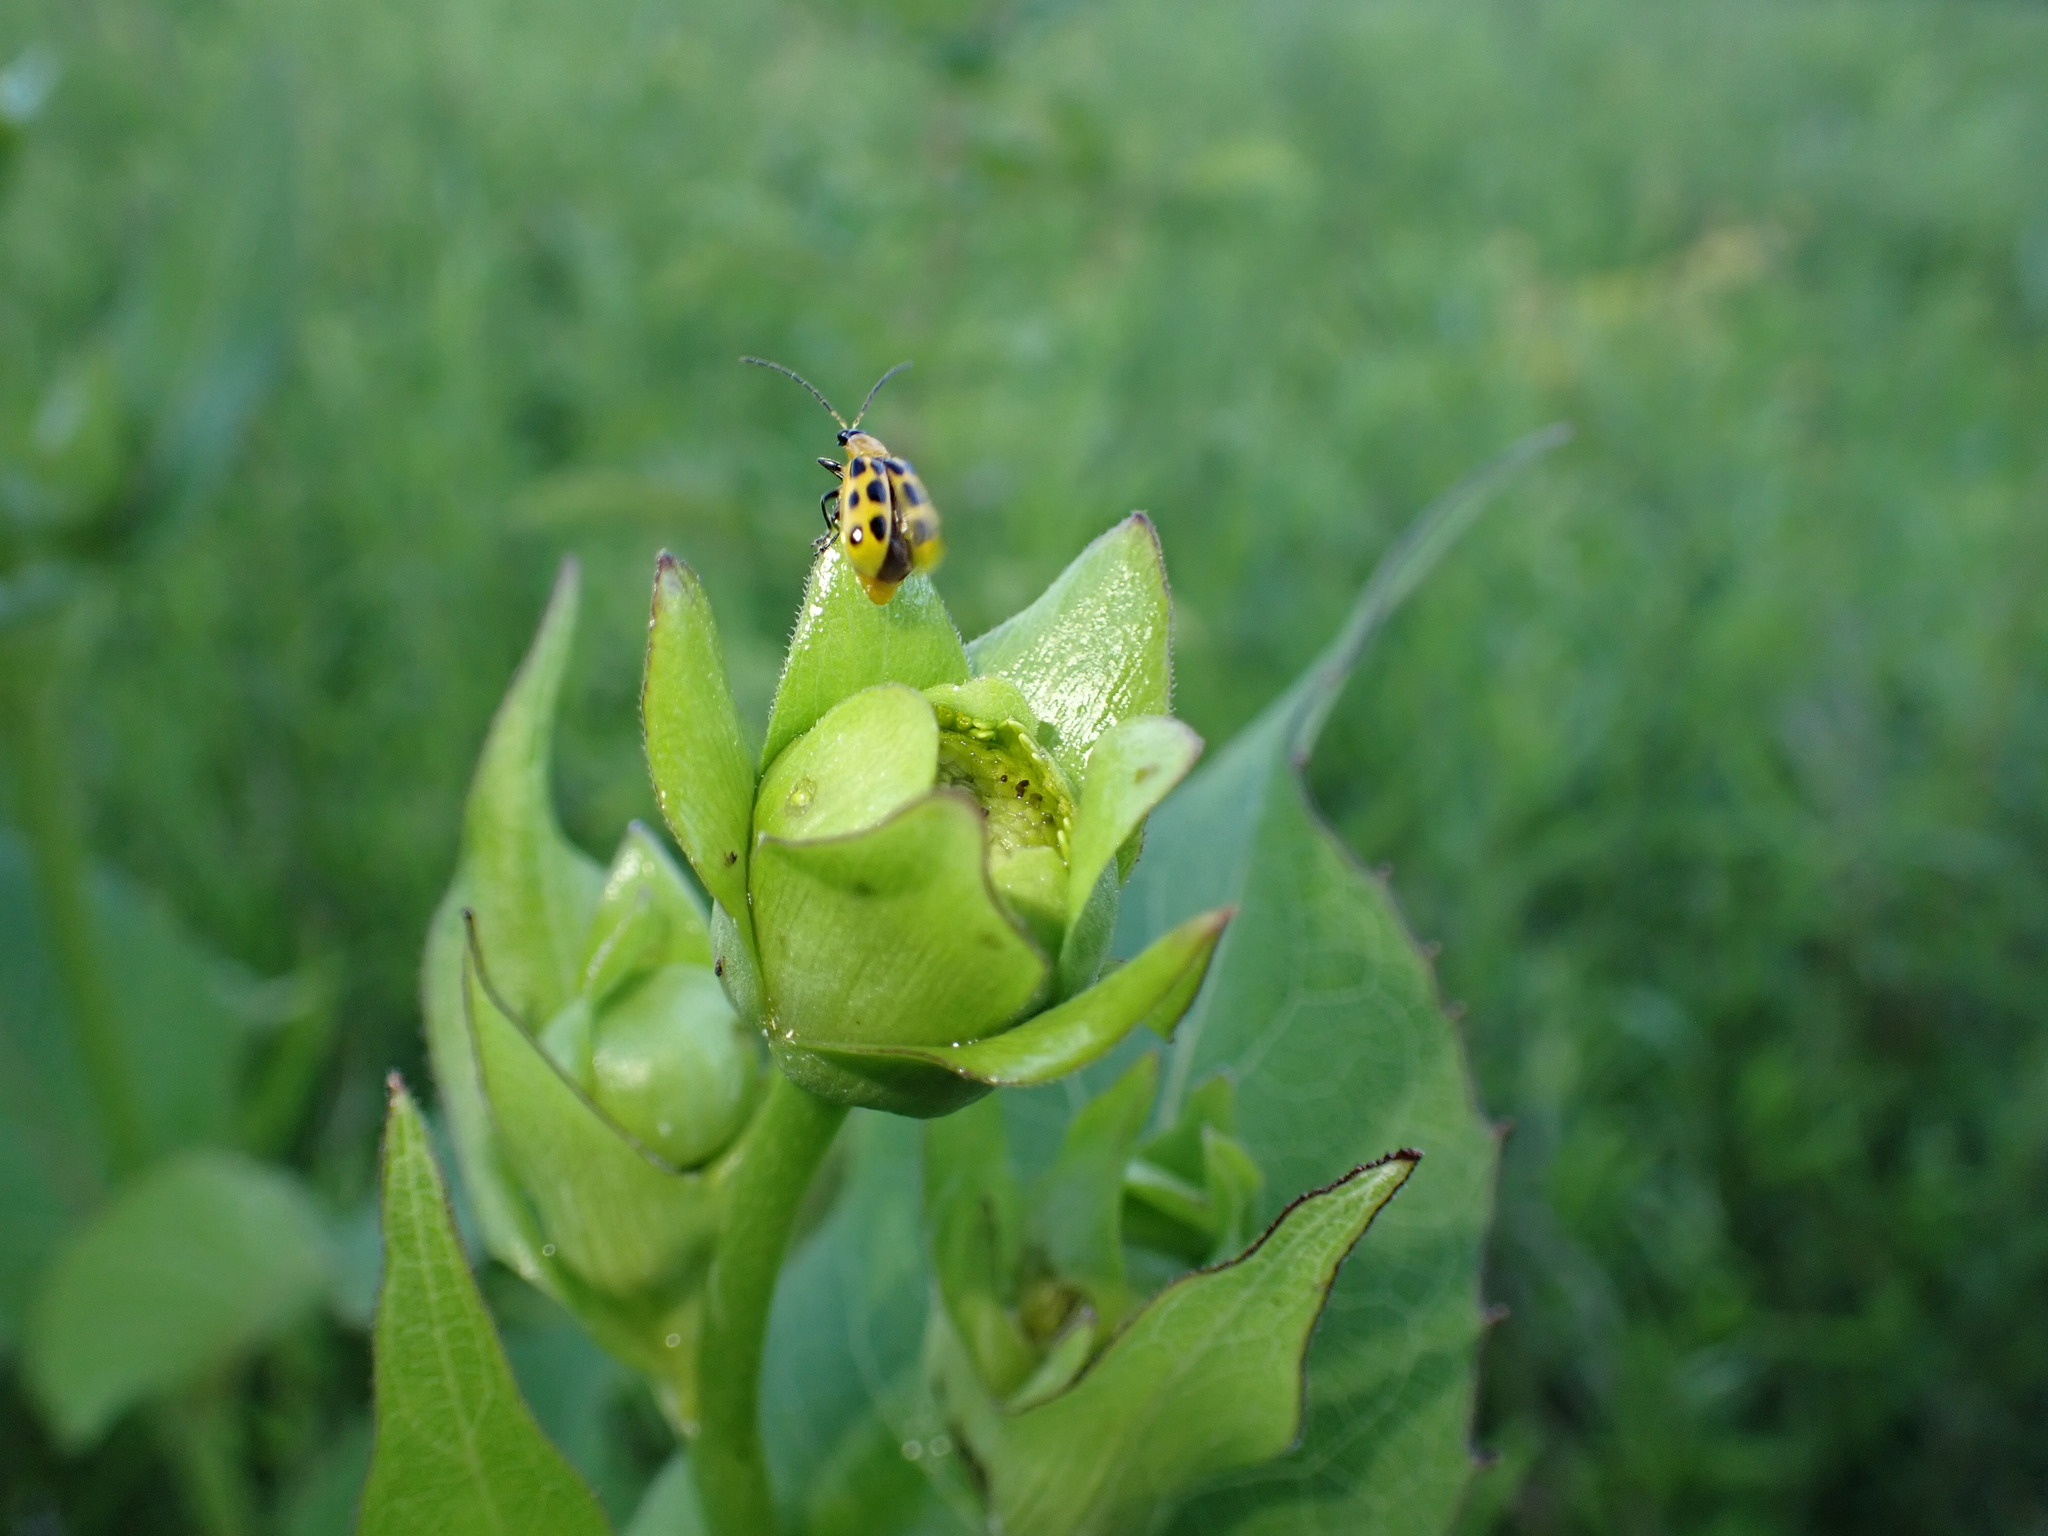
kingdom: Animalia
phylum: Arthropoda
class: Insecta
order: Coleoptera
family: Chrysomelidae
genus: Diabrotica
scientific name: Diabrotica undecimpunctata
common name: Spotted cucumber beetle
